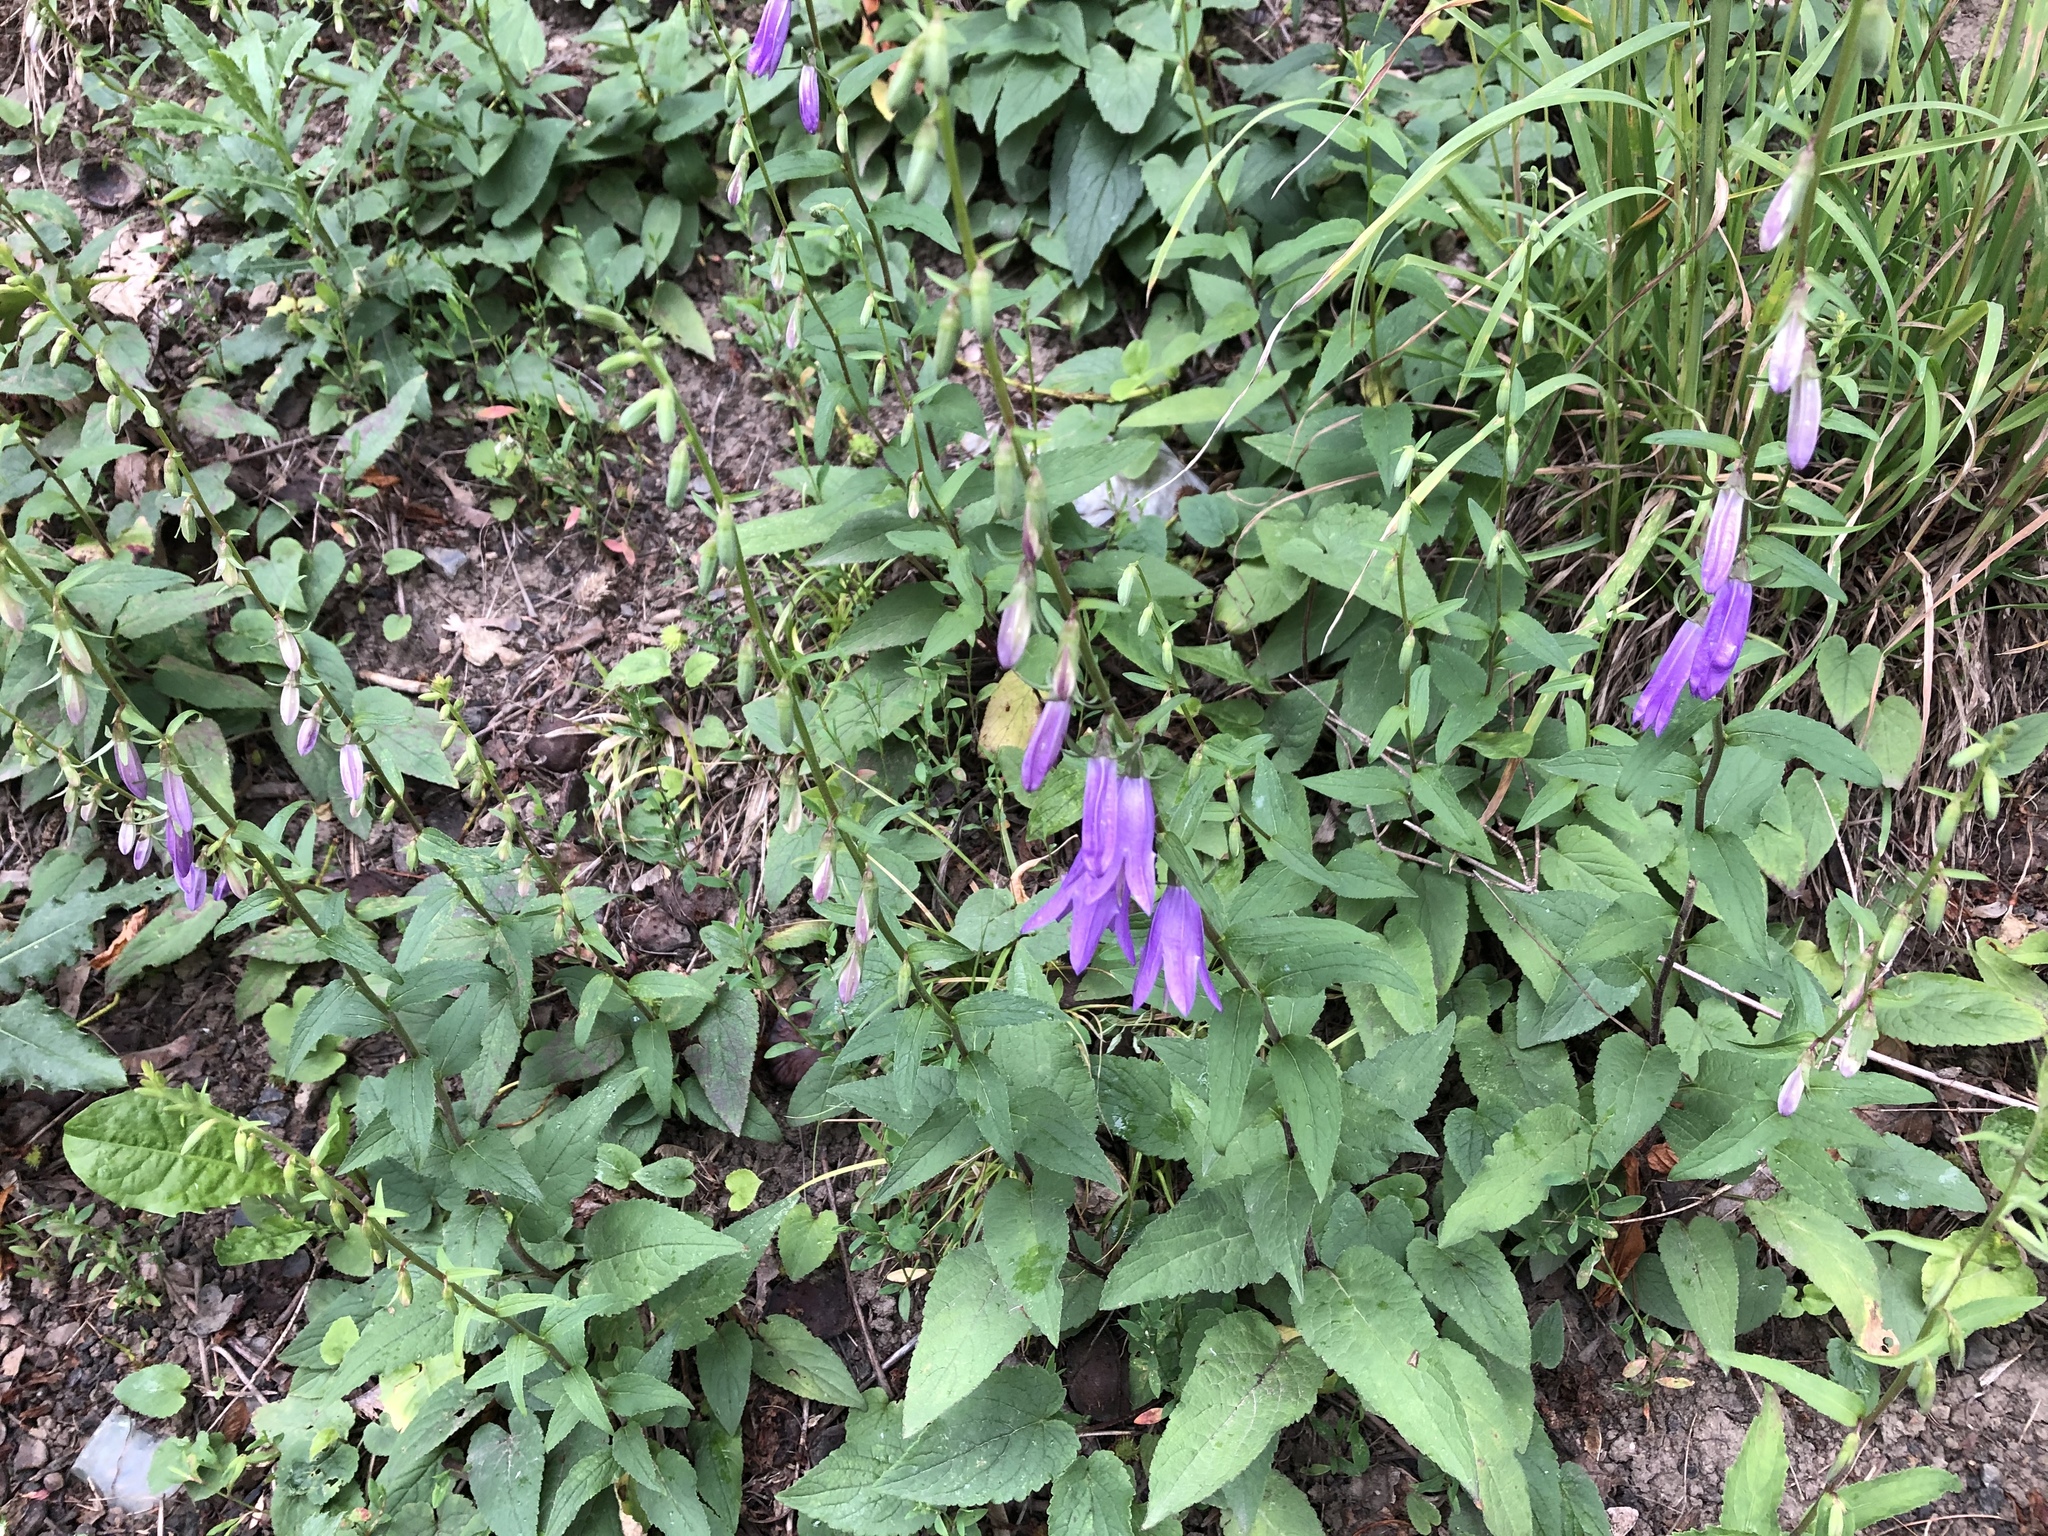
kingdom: Plantae
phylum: Tracheophyta
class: Magnoliopsida
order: Asterales
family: Campanulaceae
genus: Campanula
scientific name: Campanula rapunculoides
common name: Creeping bellflower
